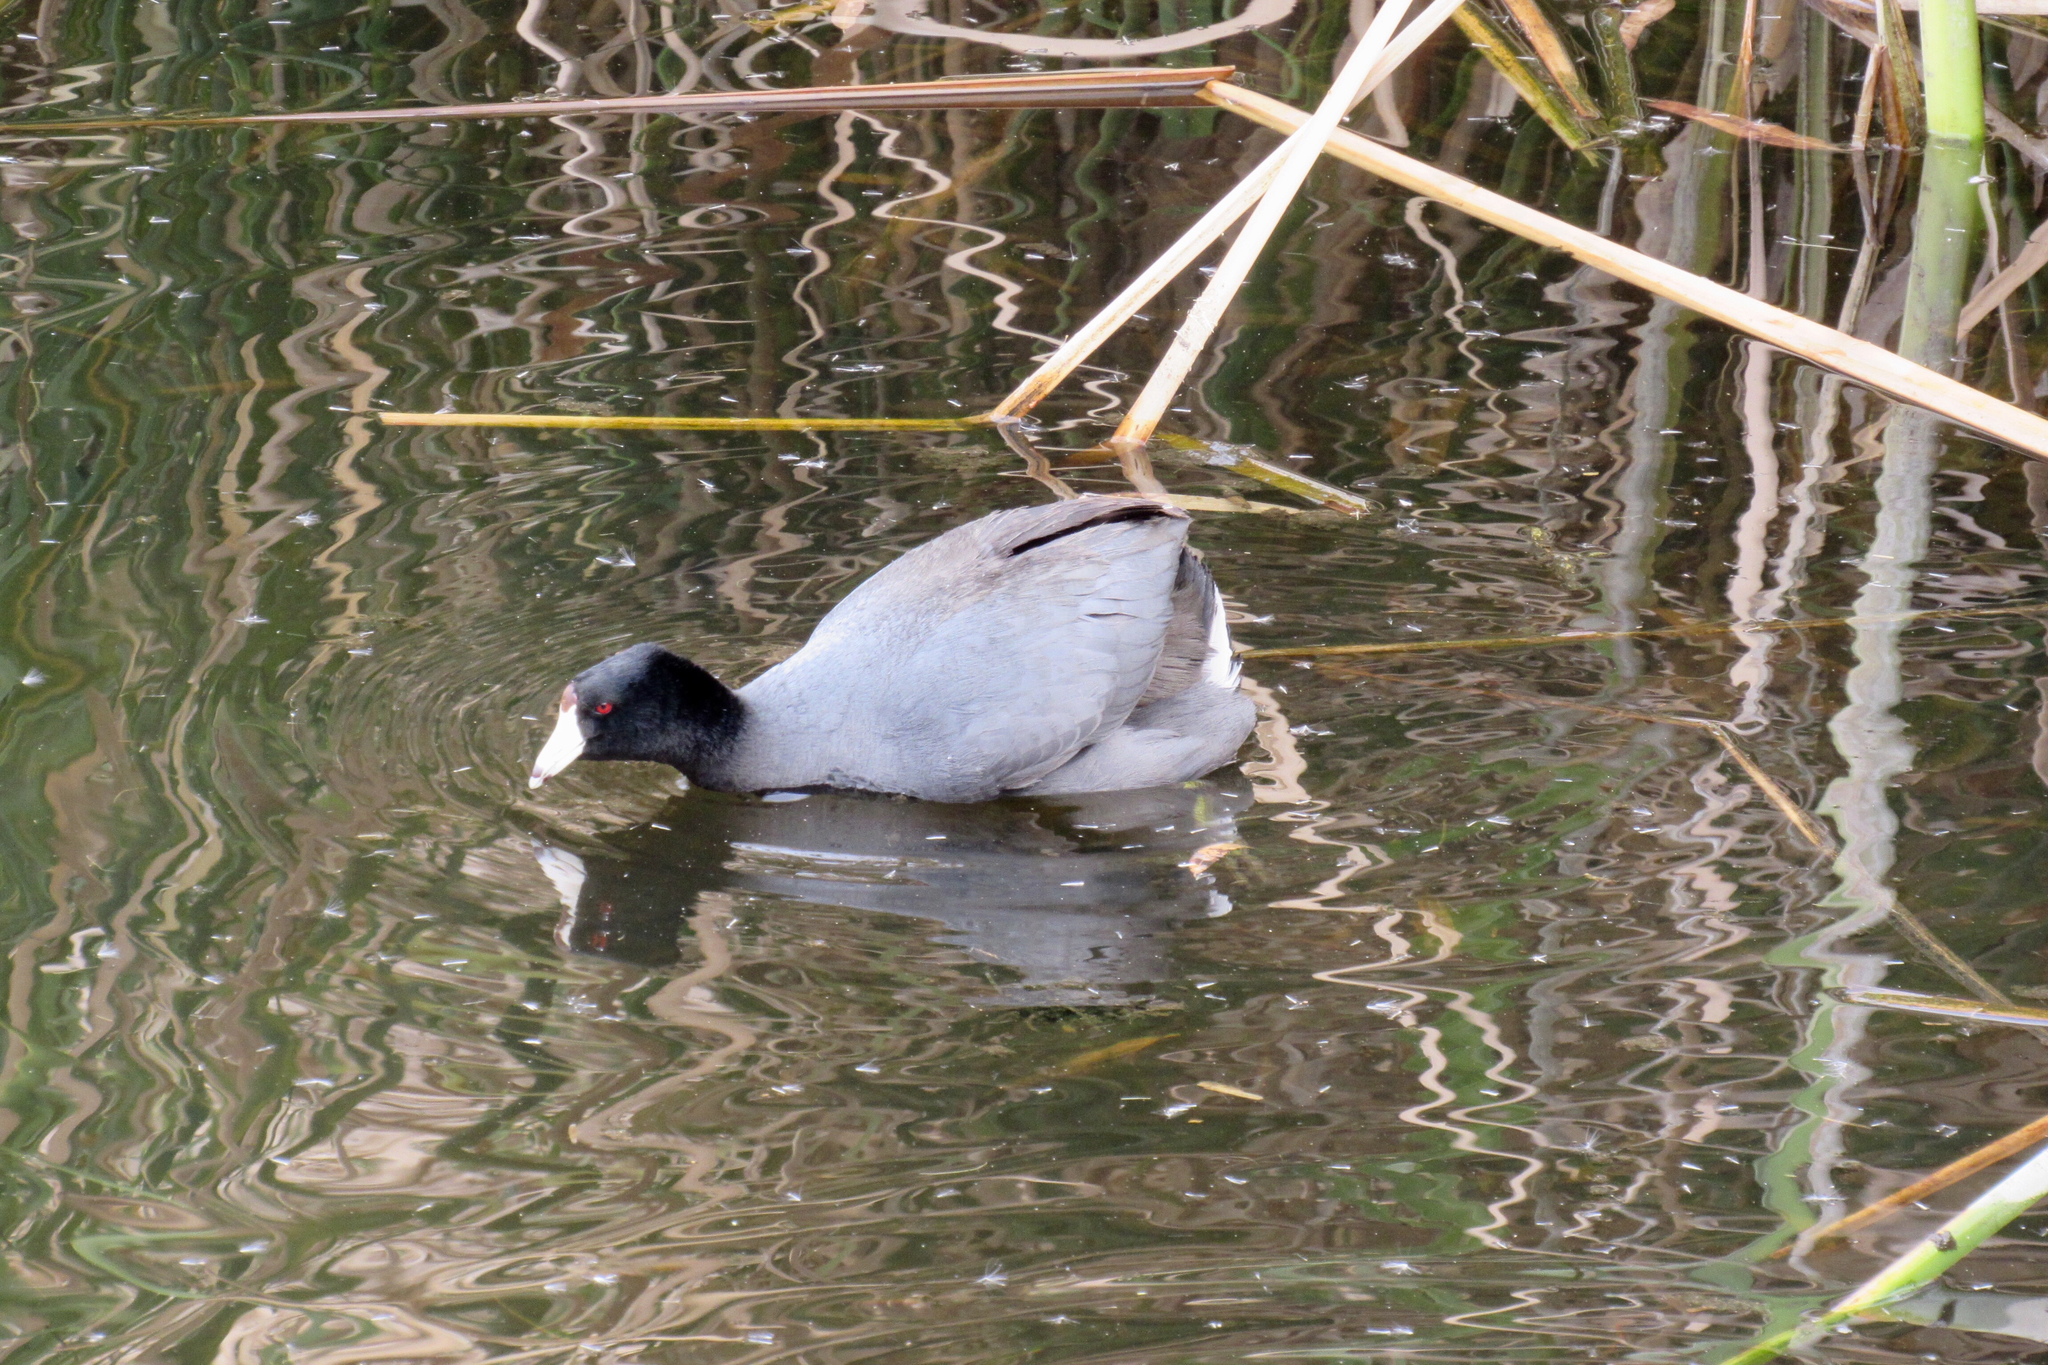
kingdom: Animalia
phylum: Chordata
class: Aves
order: Gruiformes
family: Rallidae
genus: Fulica
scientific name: Fulica americana
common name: American coot
